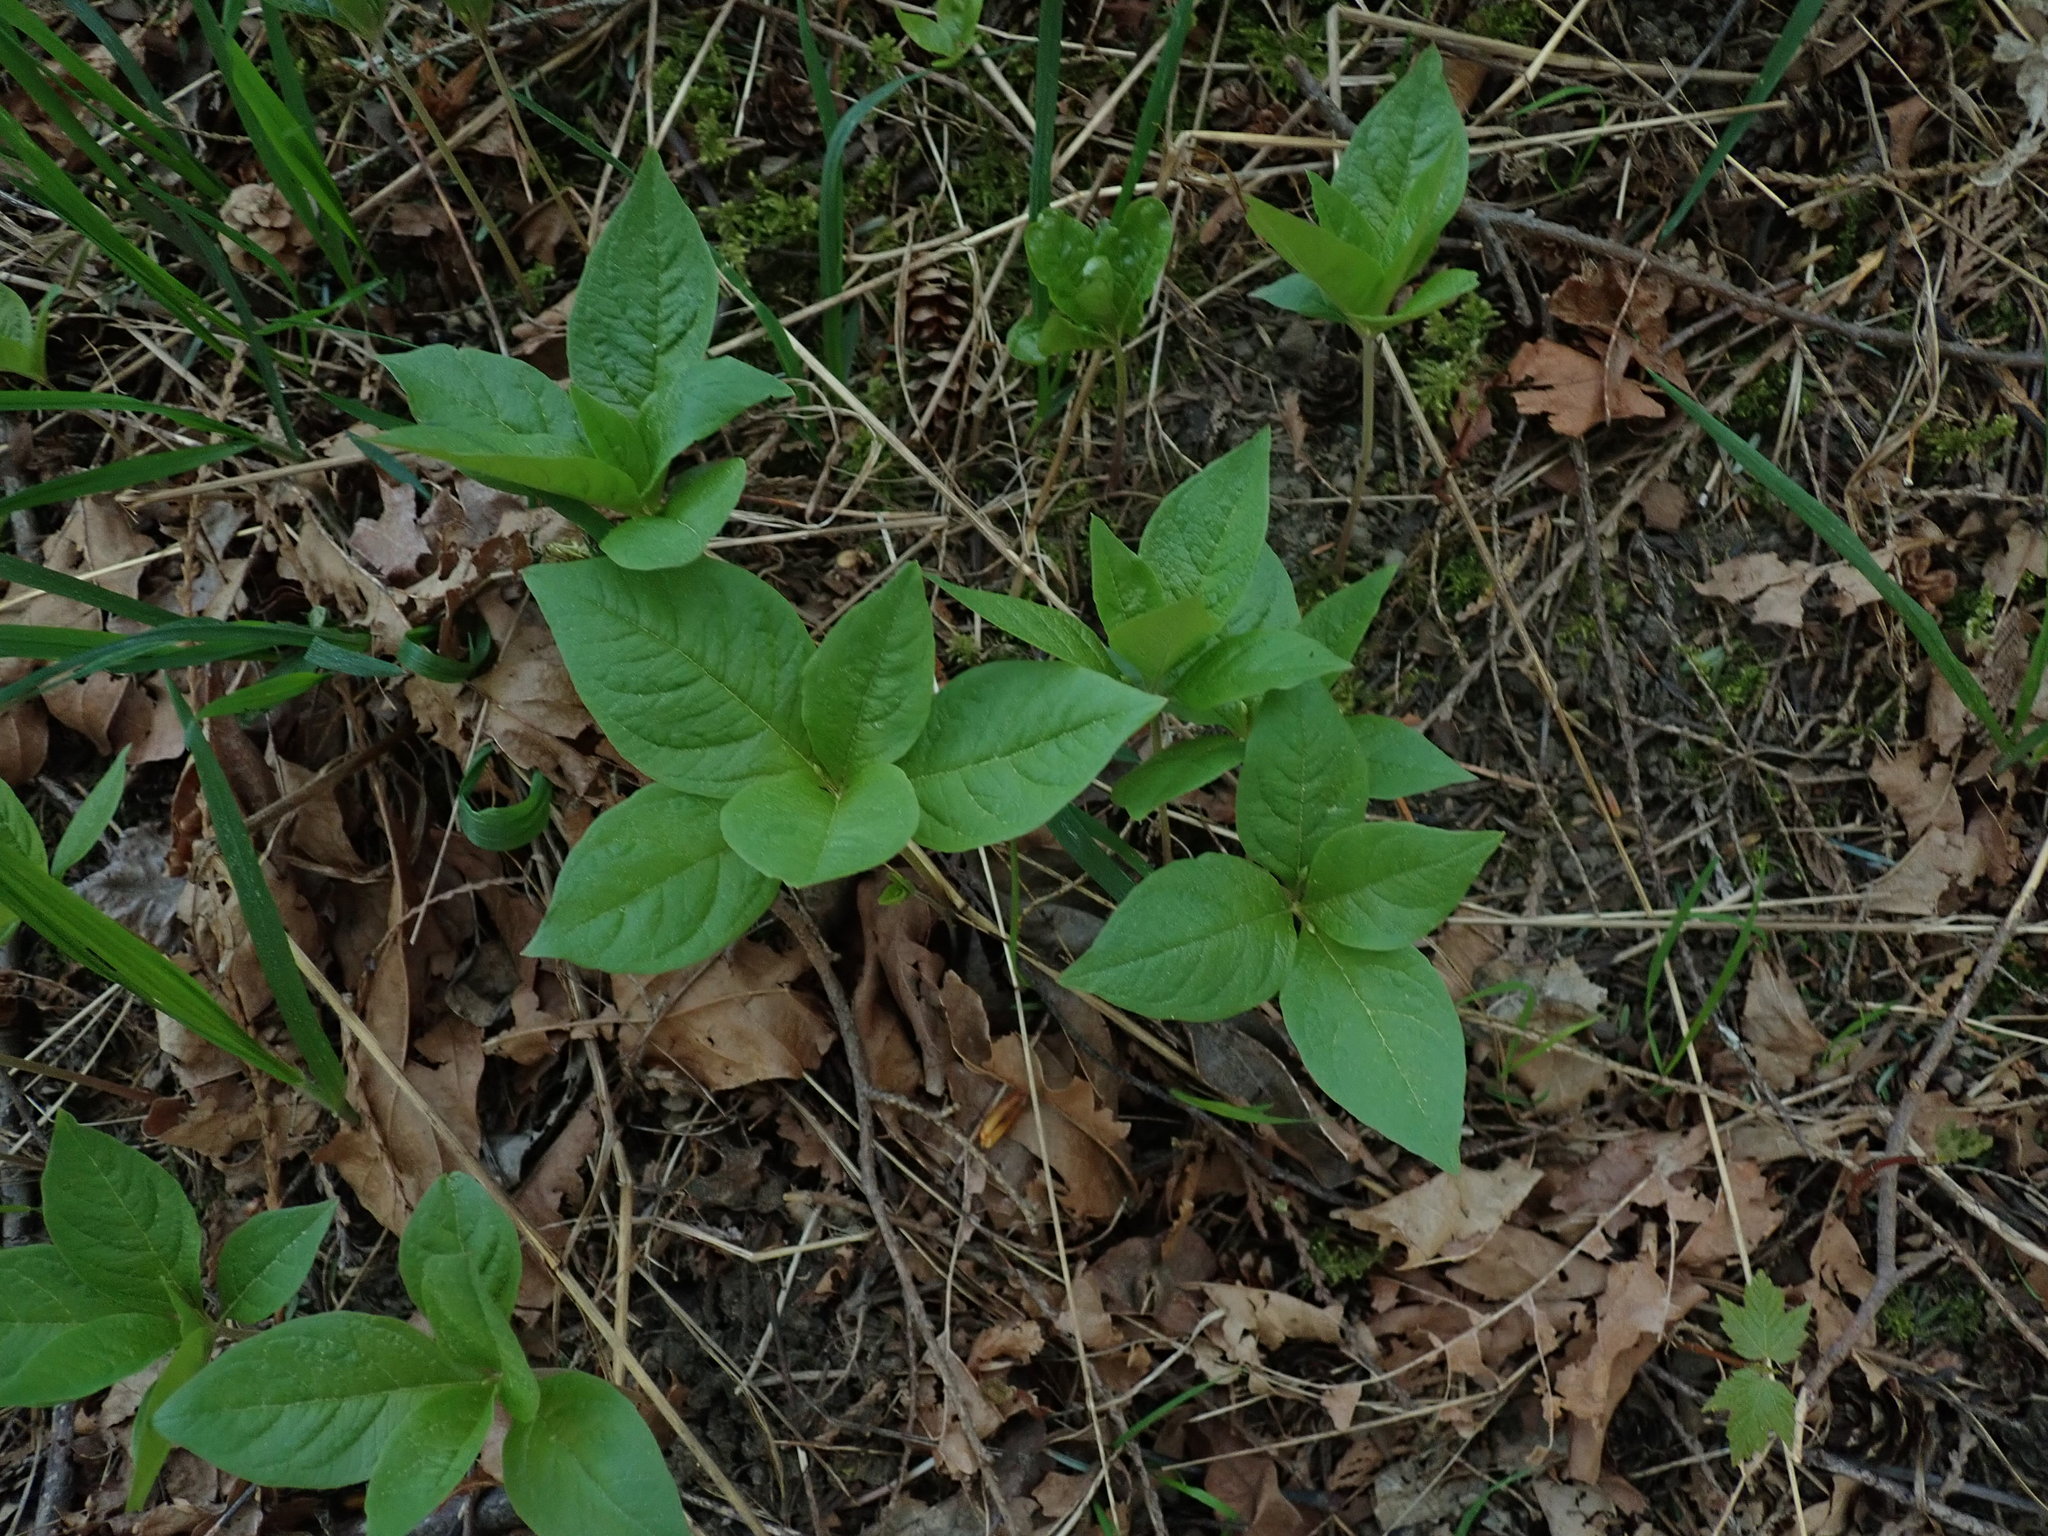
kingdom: Plantae
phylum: Tracheophyta
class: Magnoliopsida
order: Ericales
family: Primulaceae
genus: Lysimachia
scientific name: Lysimachia latifolia
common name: Pacific starflower
